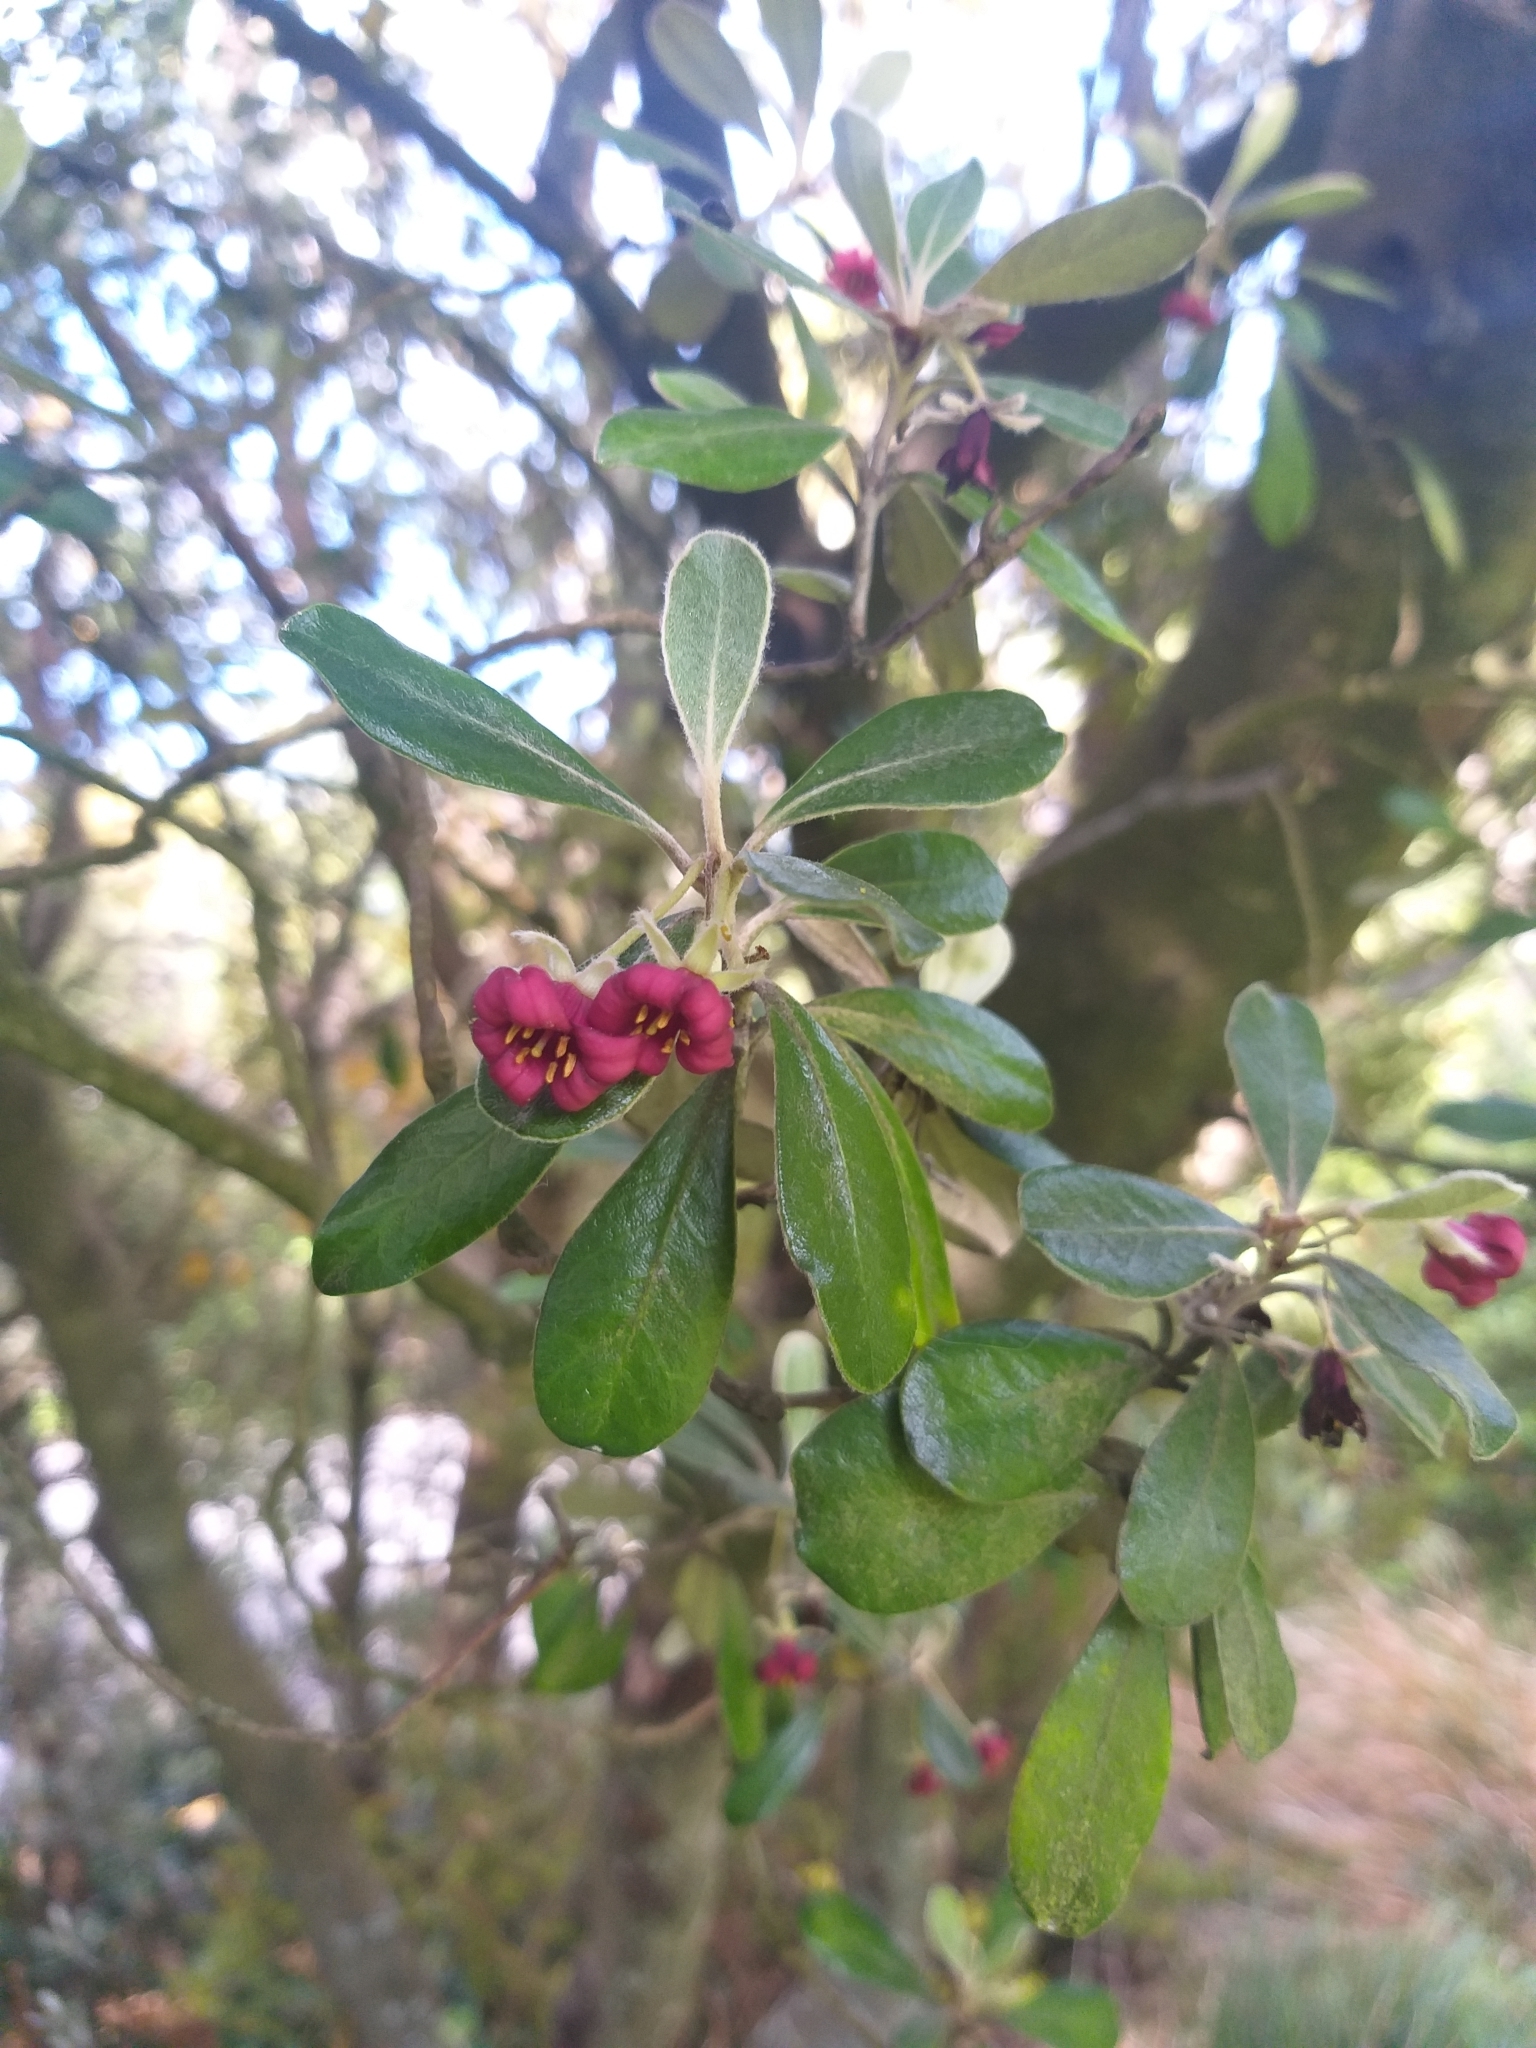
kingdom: Plantae
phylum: Tracheophyta
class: Magnoliopsida
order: Apiales
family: Pittosporaceae
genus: Pittosporum
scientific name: Pittosporum crassifolium
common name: Karo
